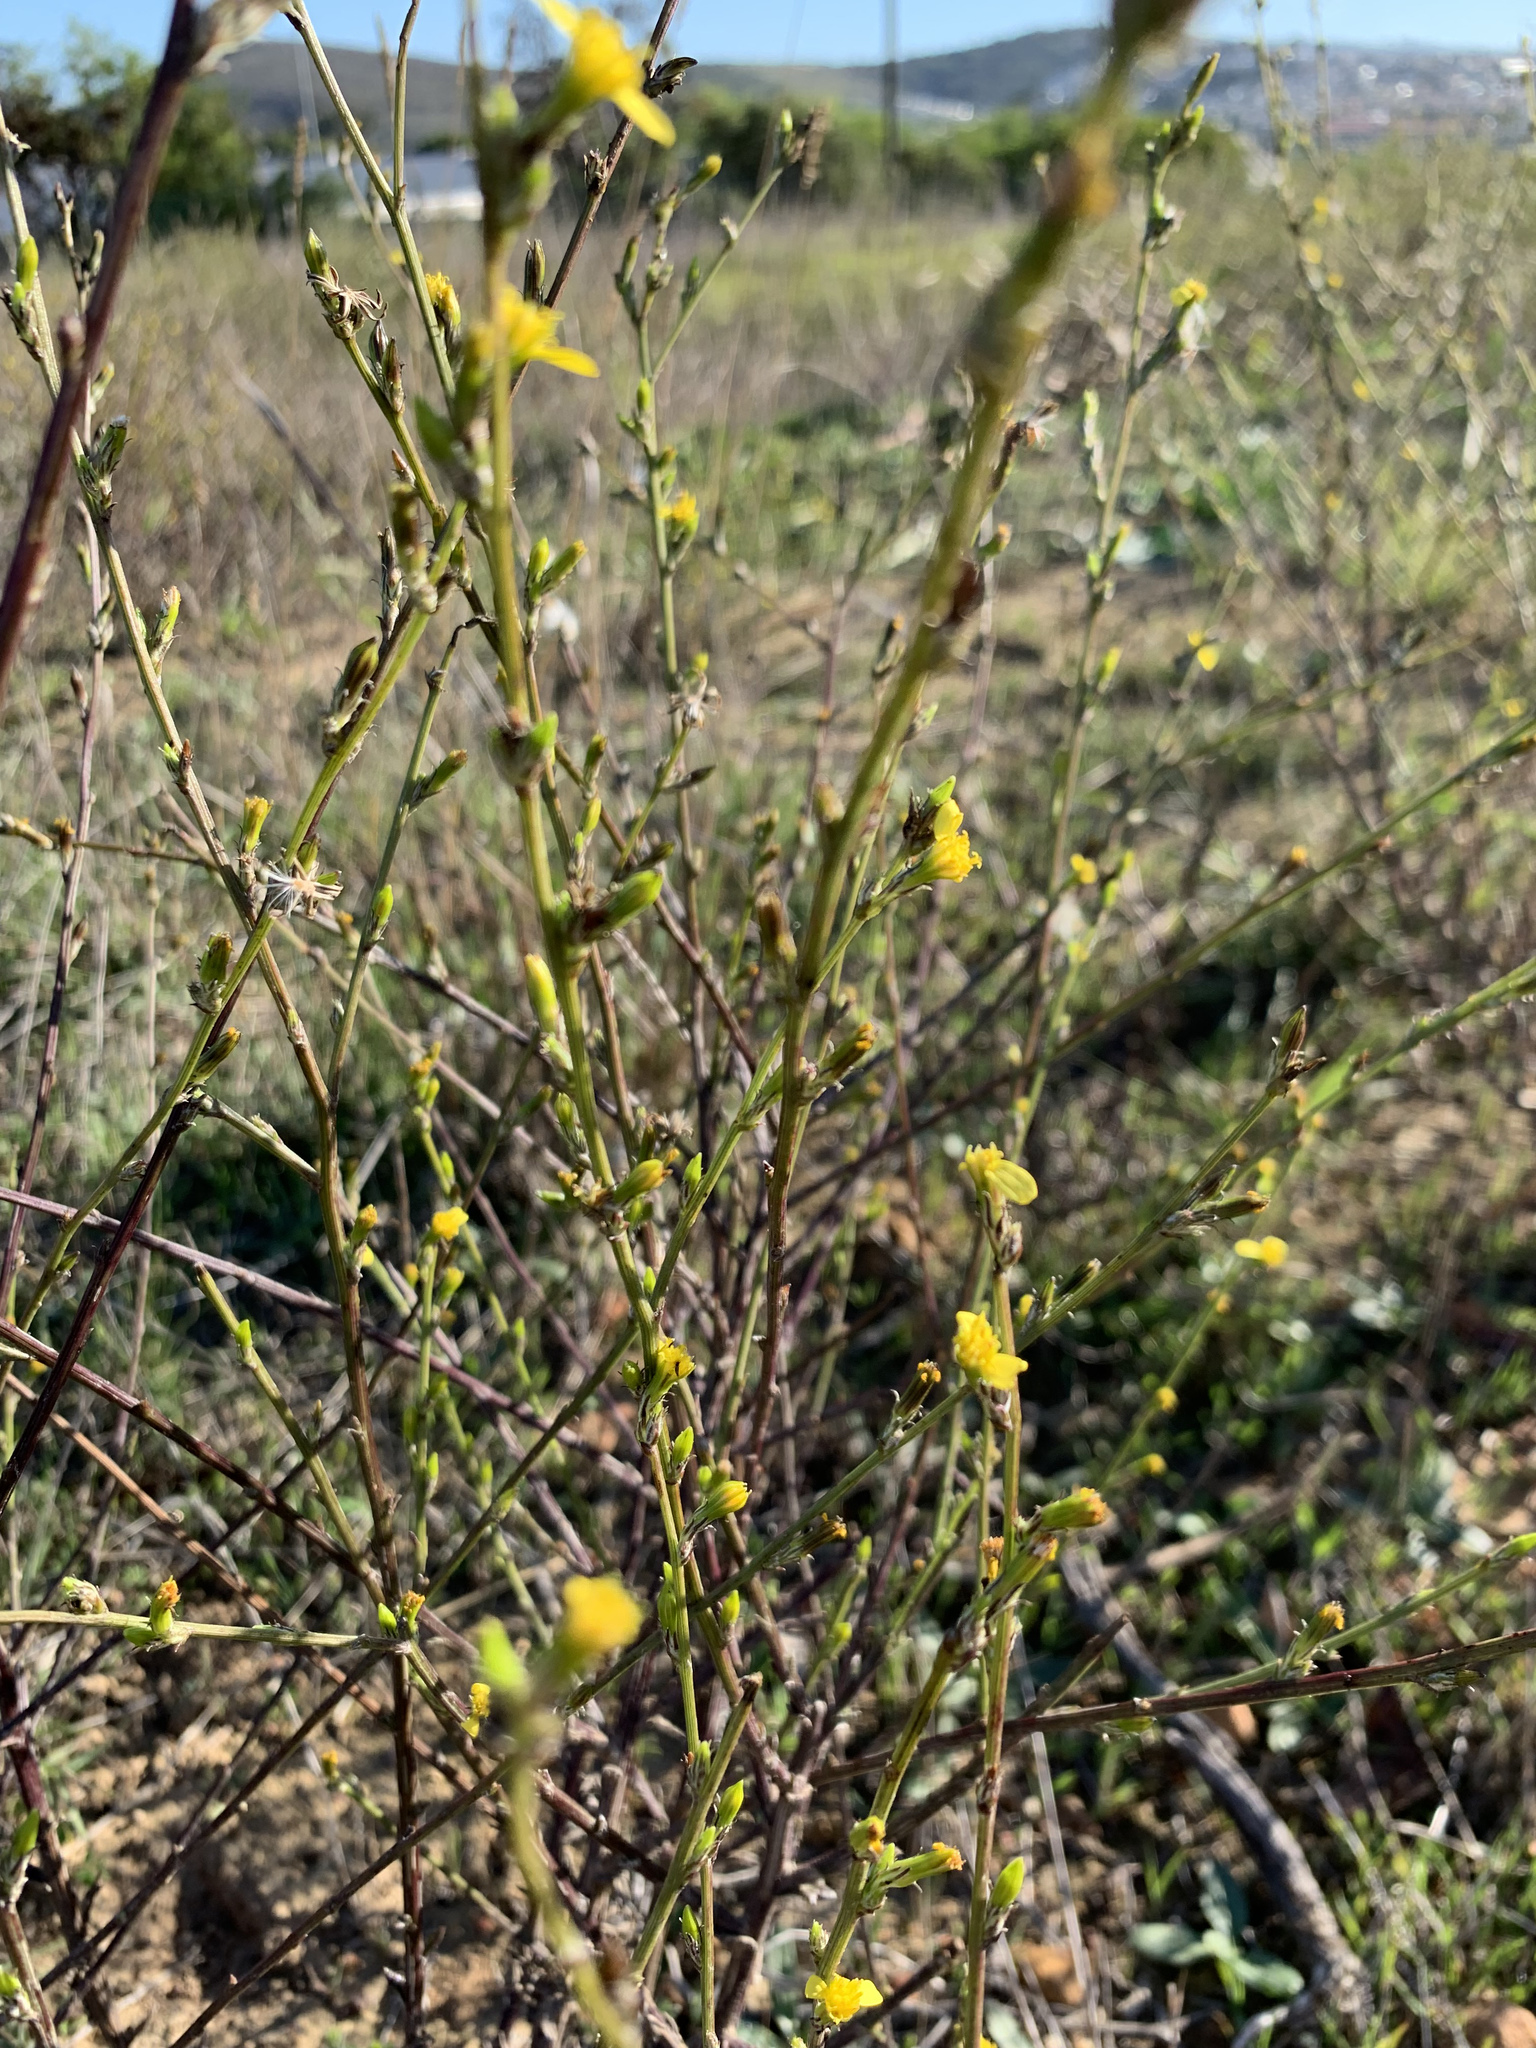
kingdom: Plantae
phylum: Tracheophyta
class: Magnoliopsida
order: Asterales
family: Asteraceae
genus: Senecio
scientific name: Senecio pubigerus
